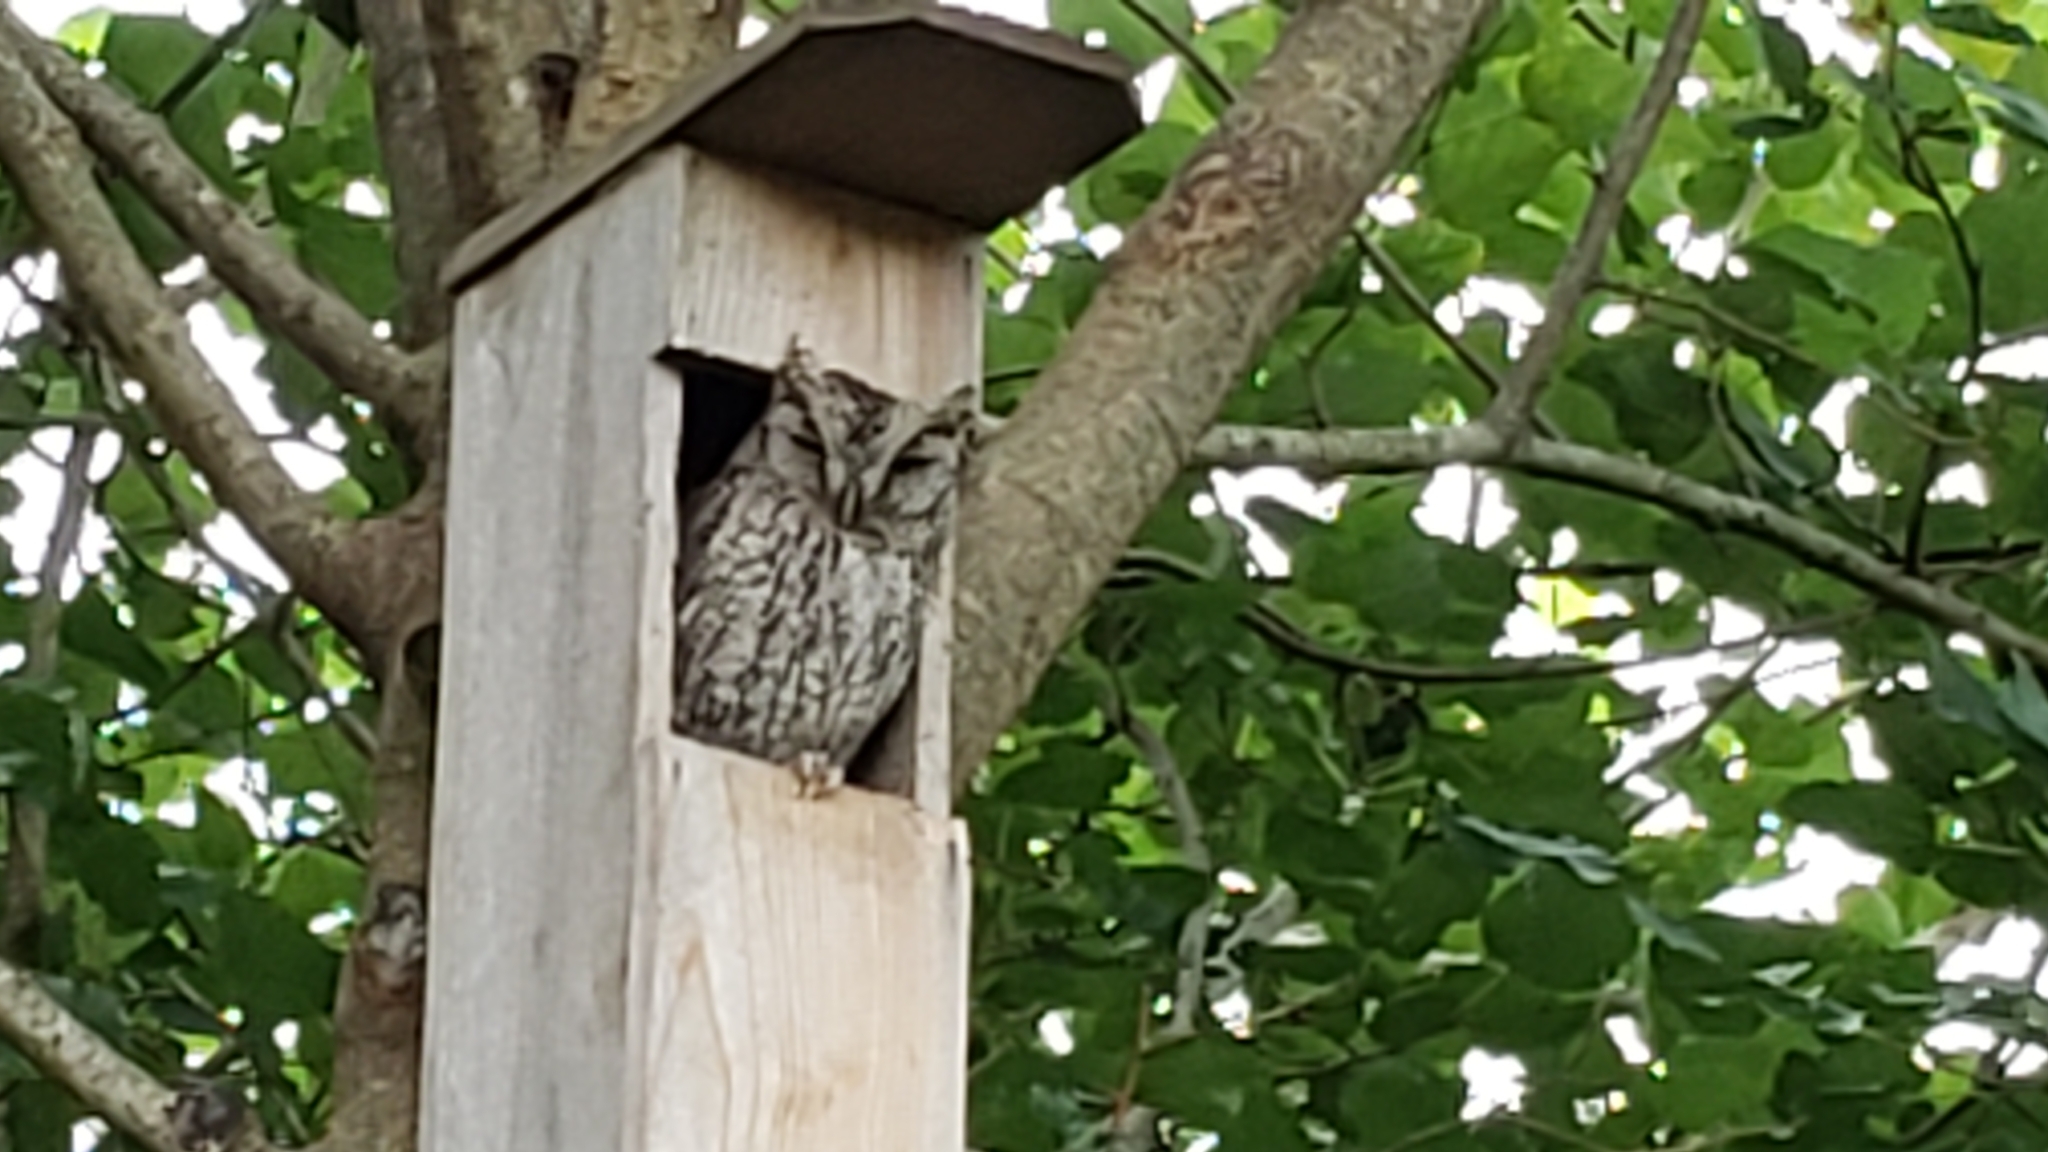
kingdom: Animalia
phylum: Chordata
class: Aves
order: Strigiformes
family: Strigidae
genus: Megascops
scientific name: Megascops asio
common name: Eastern screech-owl
